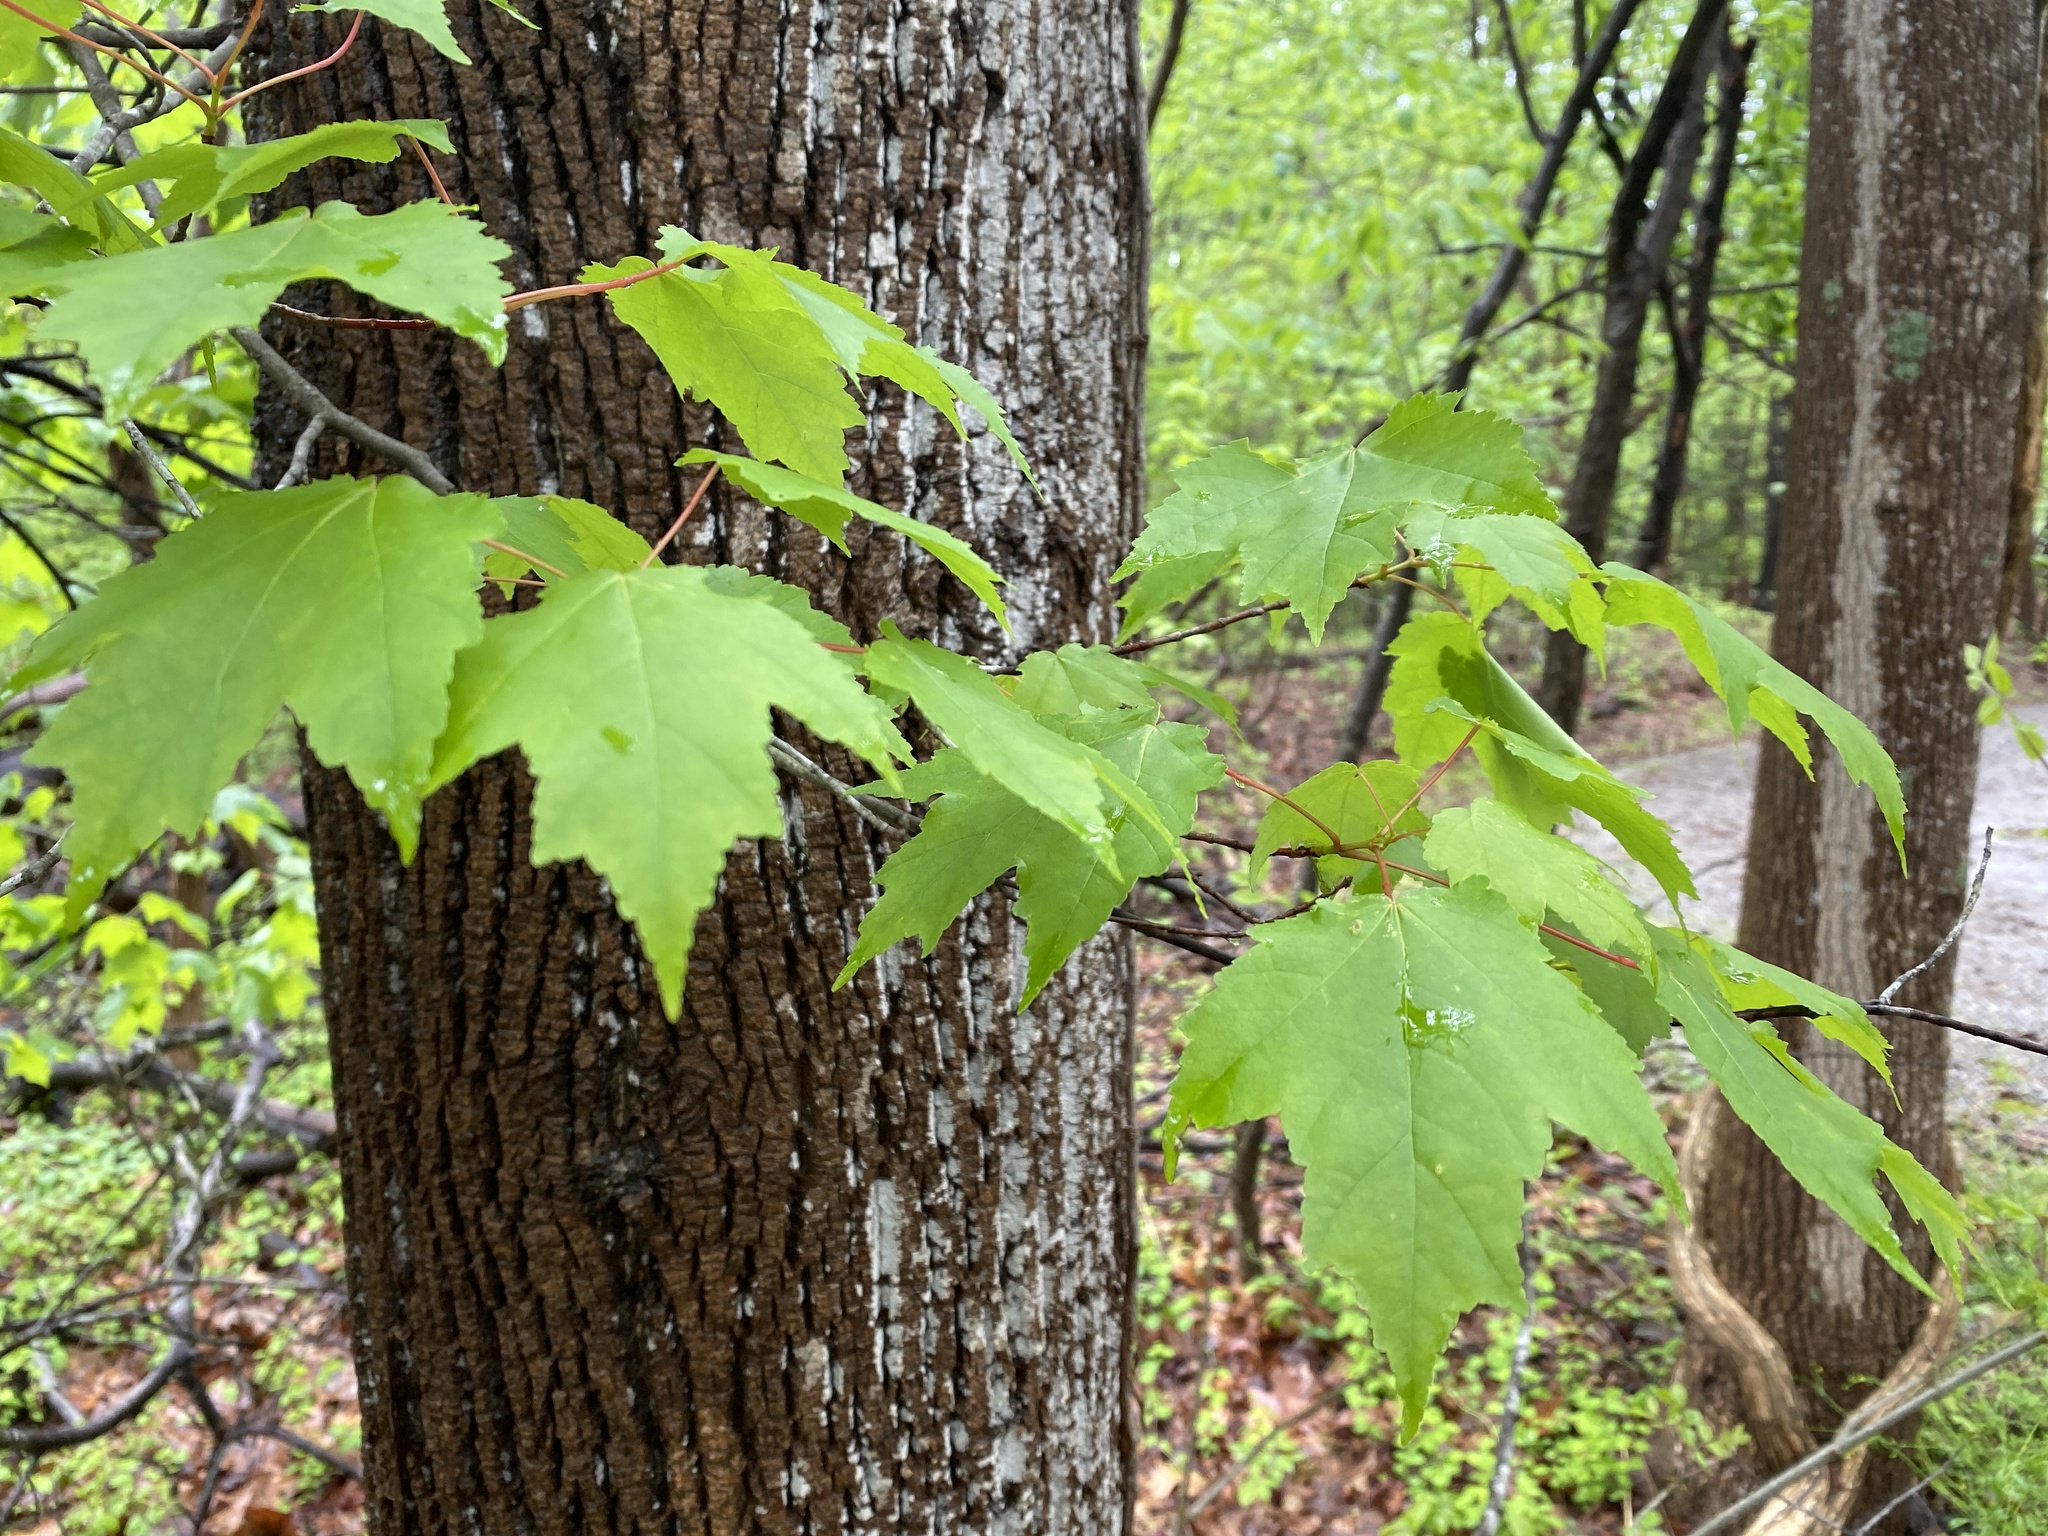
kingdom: Plantae
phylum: Tracheophyta
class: Magnoliopsida
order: Sapindales
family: Sapindaceae
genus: Acer
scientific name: Acer rubrum
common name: Red maple
